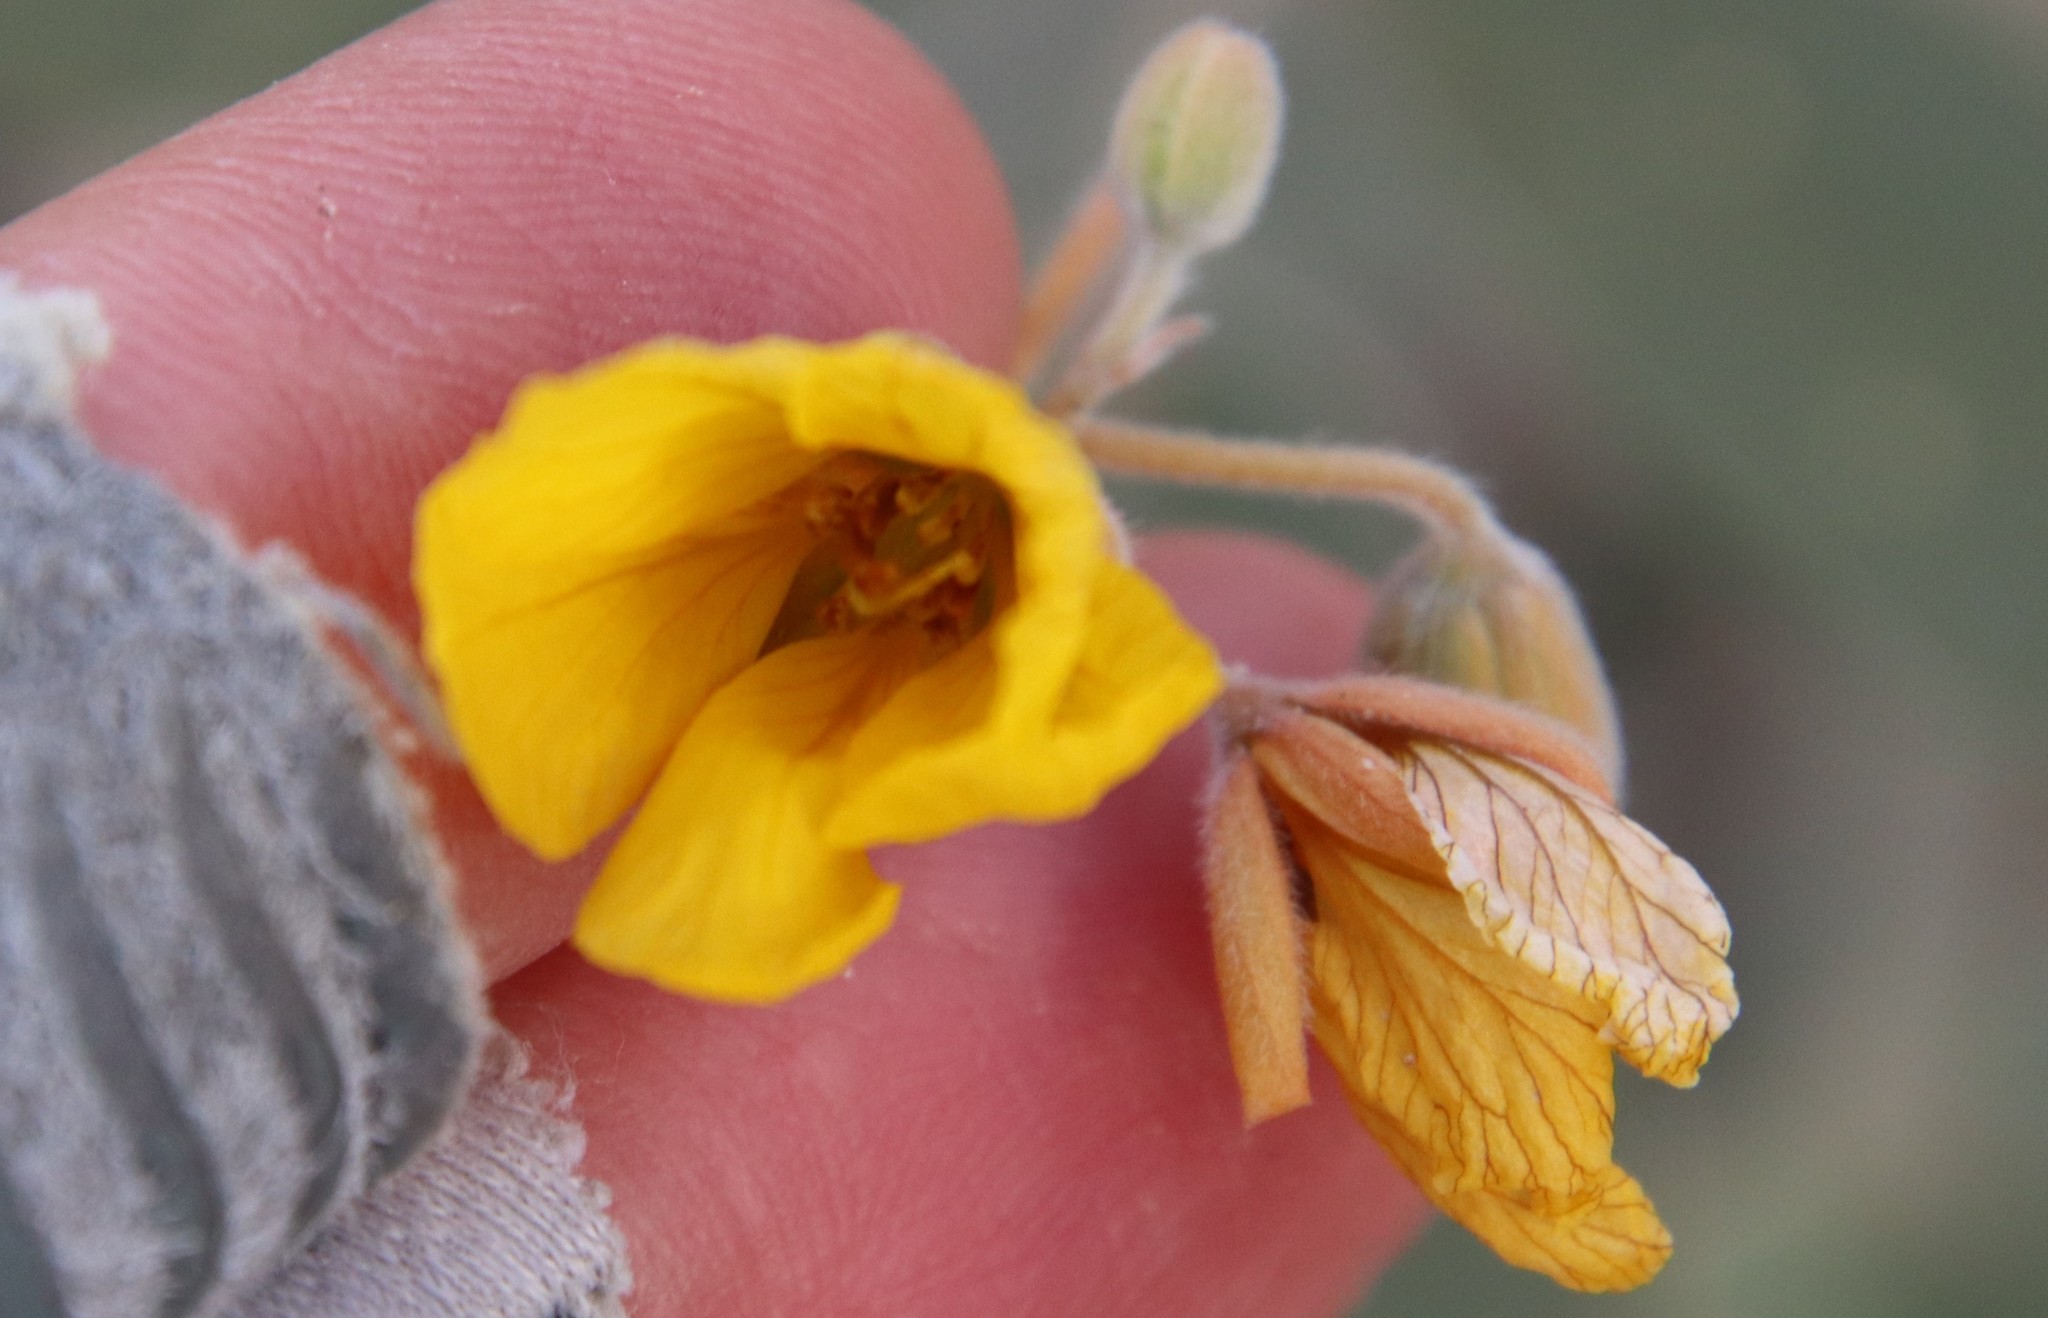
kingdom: Plantae
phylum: Tracheophyta
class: Magnoliopsida
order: Fabales
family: Fabaceae
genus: Senna
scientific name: Senna covesii
